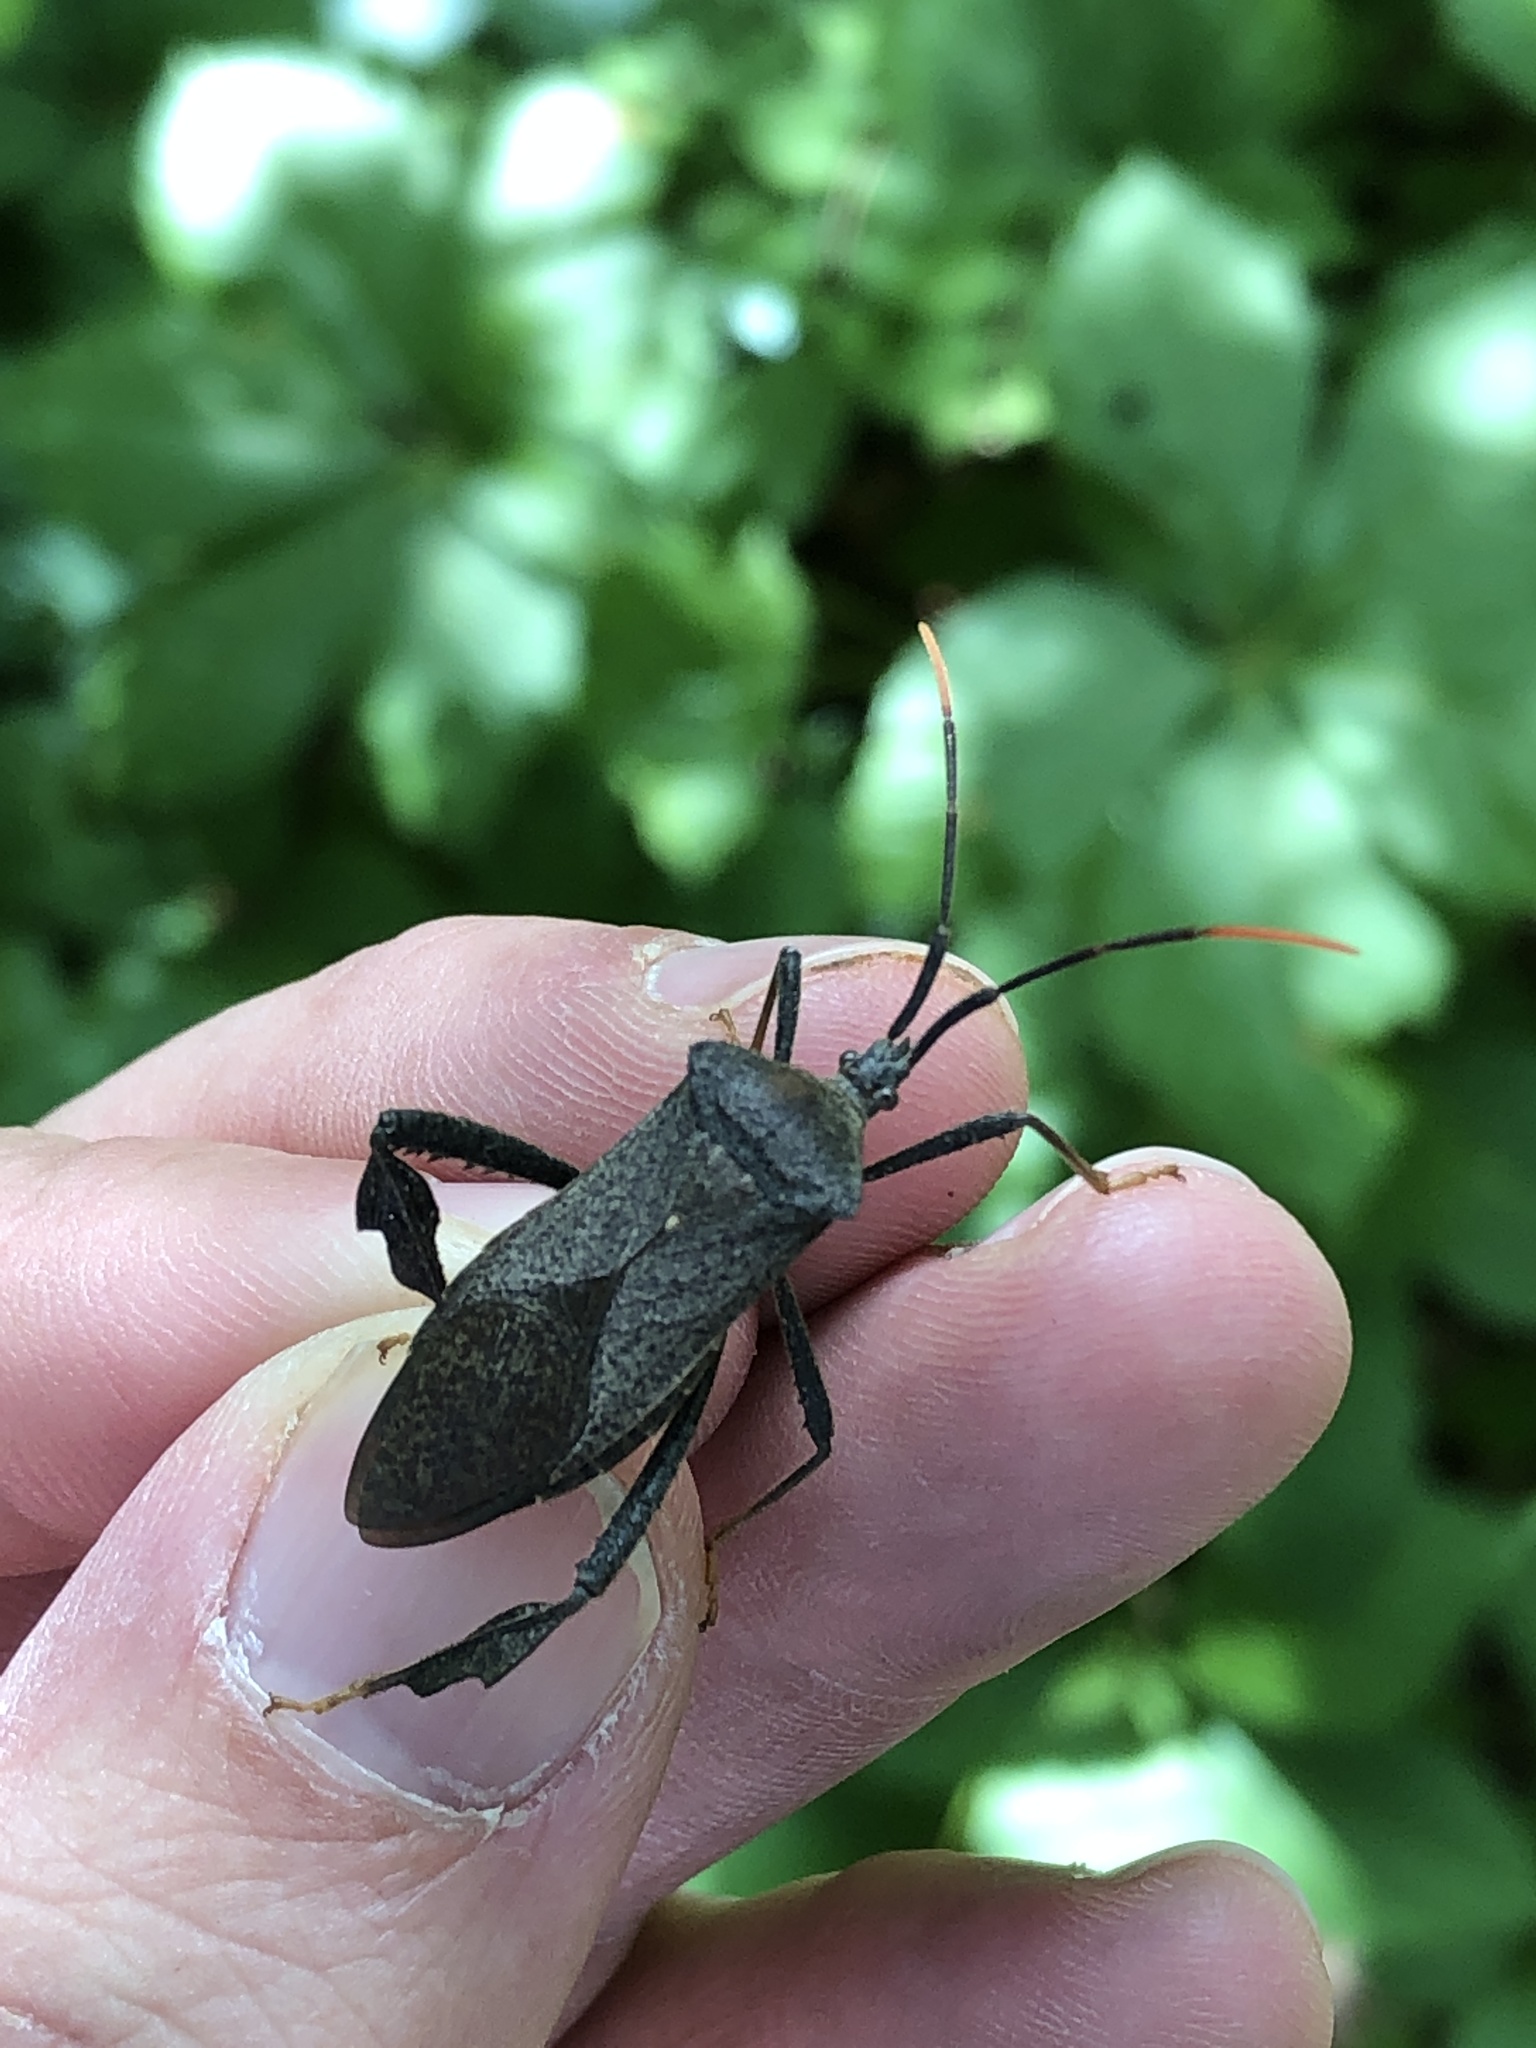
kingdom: Animalia
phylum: Arthropoda
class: Insecta
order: Hemiptera
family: Coreidae
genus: Acanthocephala
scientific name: Acanthocephala terminalis
